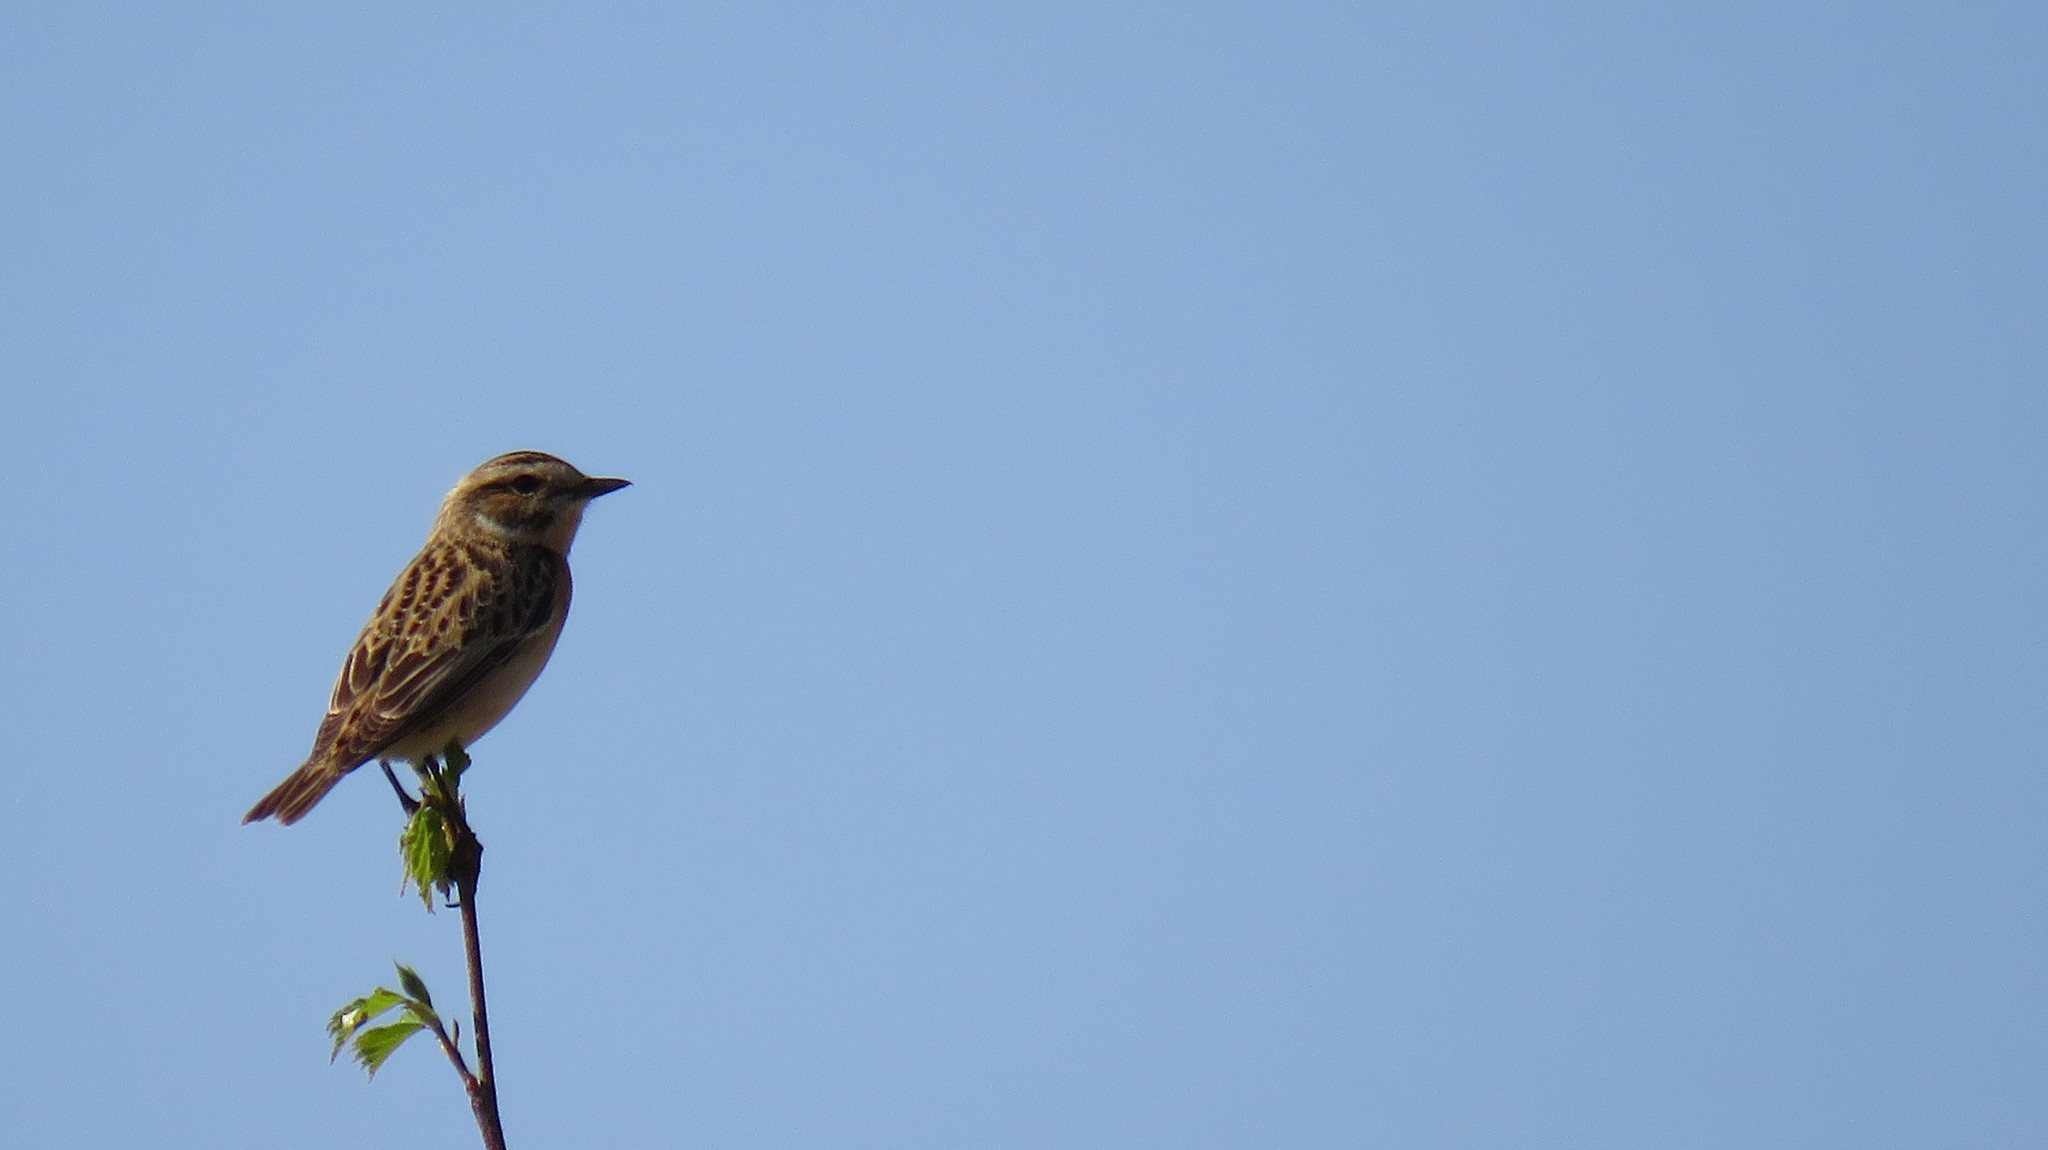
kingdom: Animalia
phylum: Chordata
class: Aves
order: Passeriformes
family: Muscicapidae
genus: Saxicola
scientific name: Saxicola rubetra
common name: Whinchat
